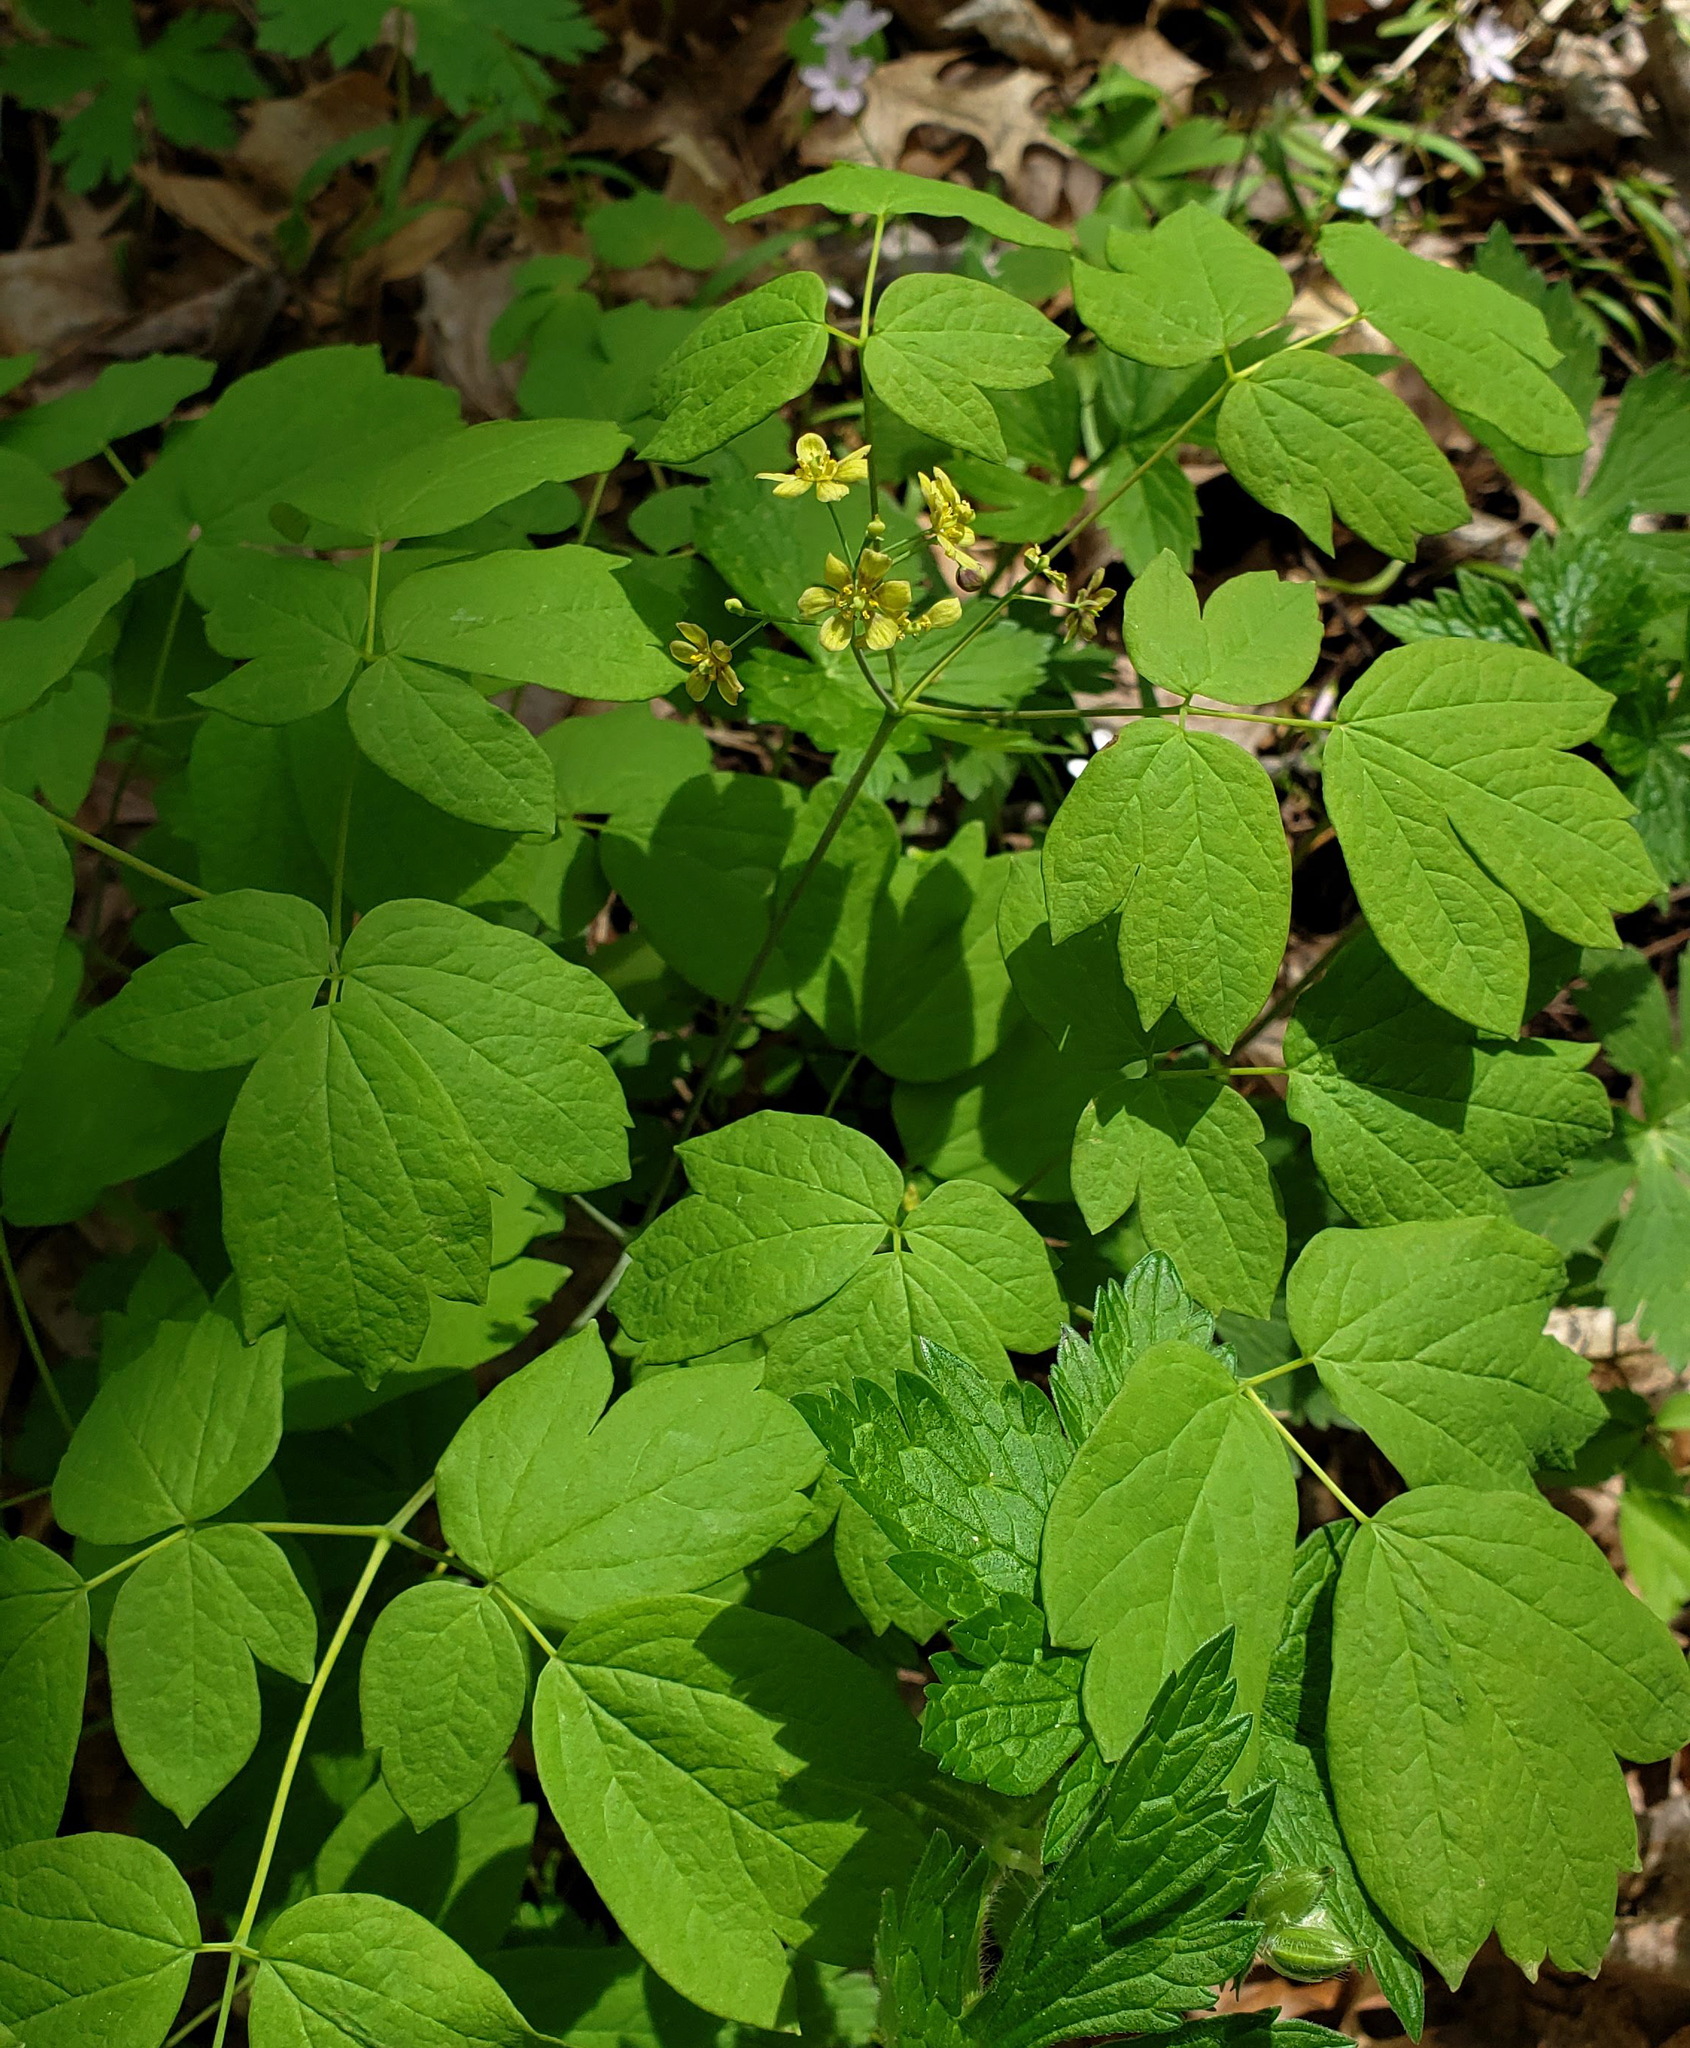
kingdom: Plantae
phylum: Tracheophyta
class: Magnoliopsida
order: Ranunculales
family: Berberidaceae
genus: Caulophyllum
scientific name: Caulophyllum thalictroides
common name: Blue cohosh
